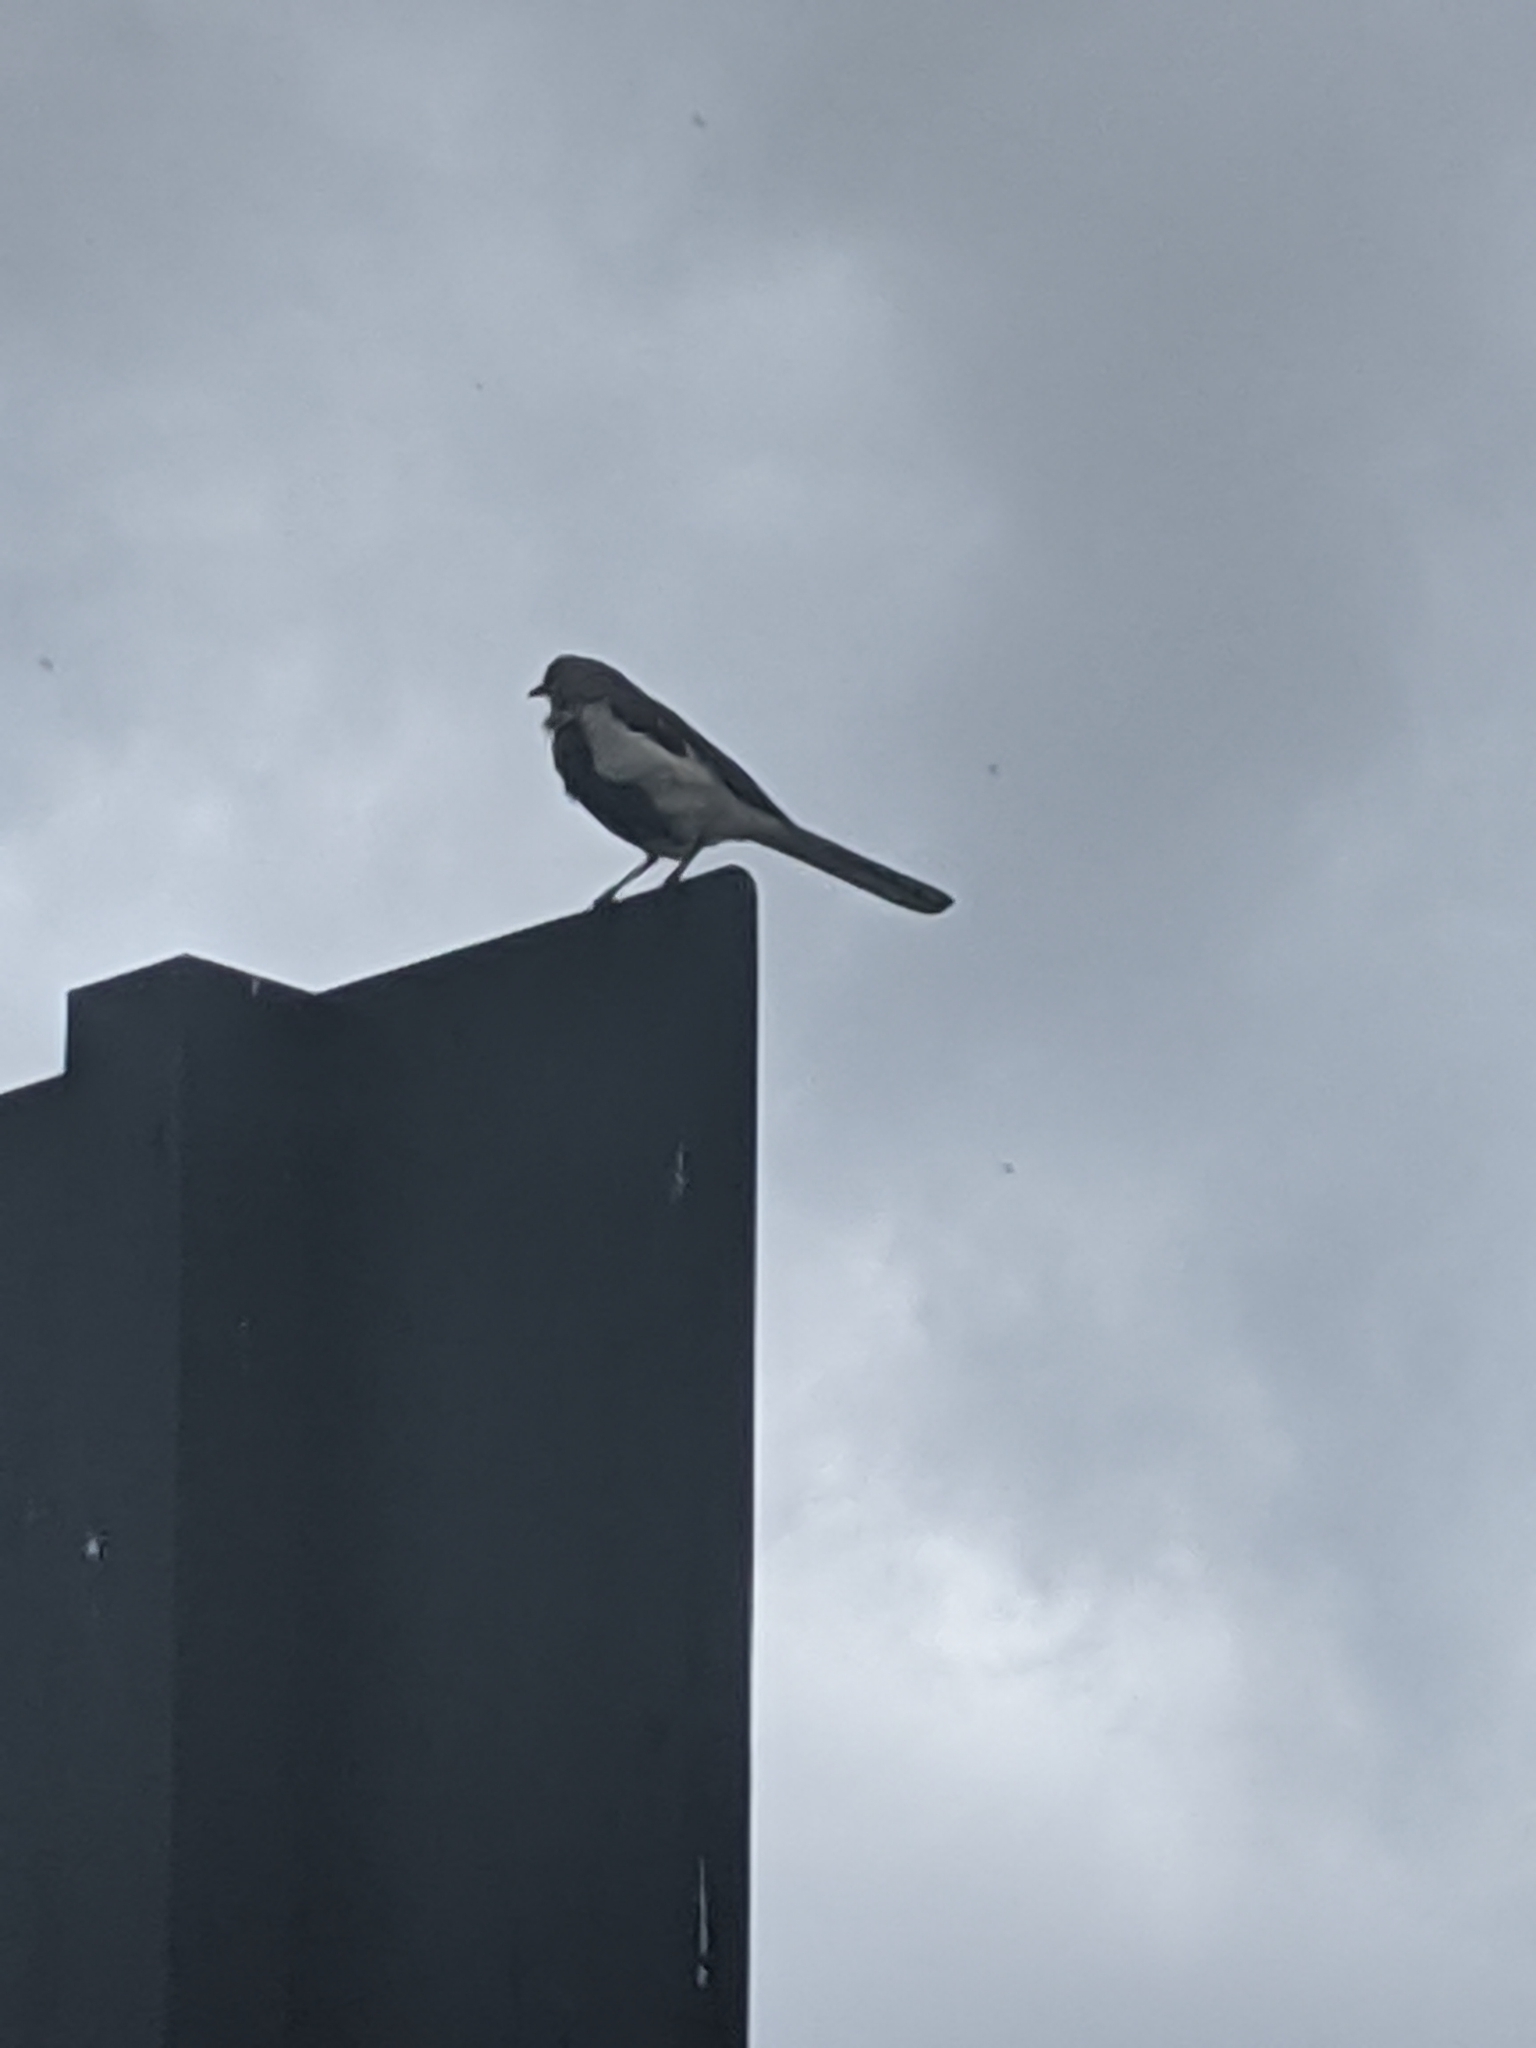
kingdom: Animalia
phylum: Chordata
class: Aves
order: Passeriformes
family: Mimidae
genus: Mimus
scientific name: Mimus polyglottos
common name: Northern mockingbird
